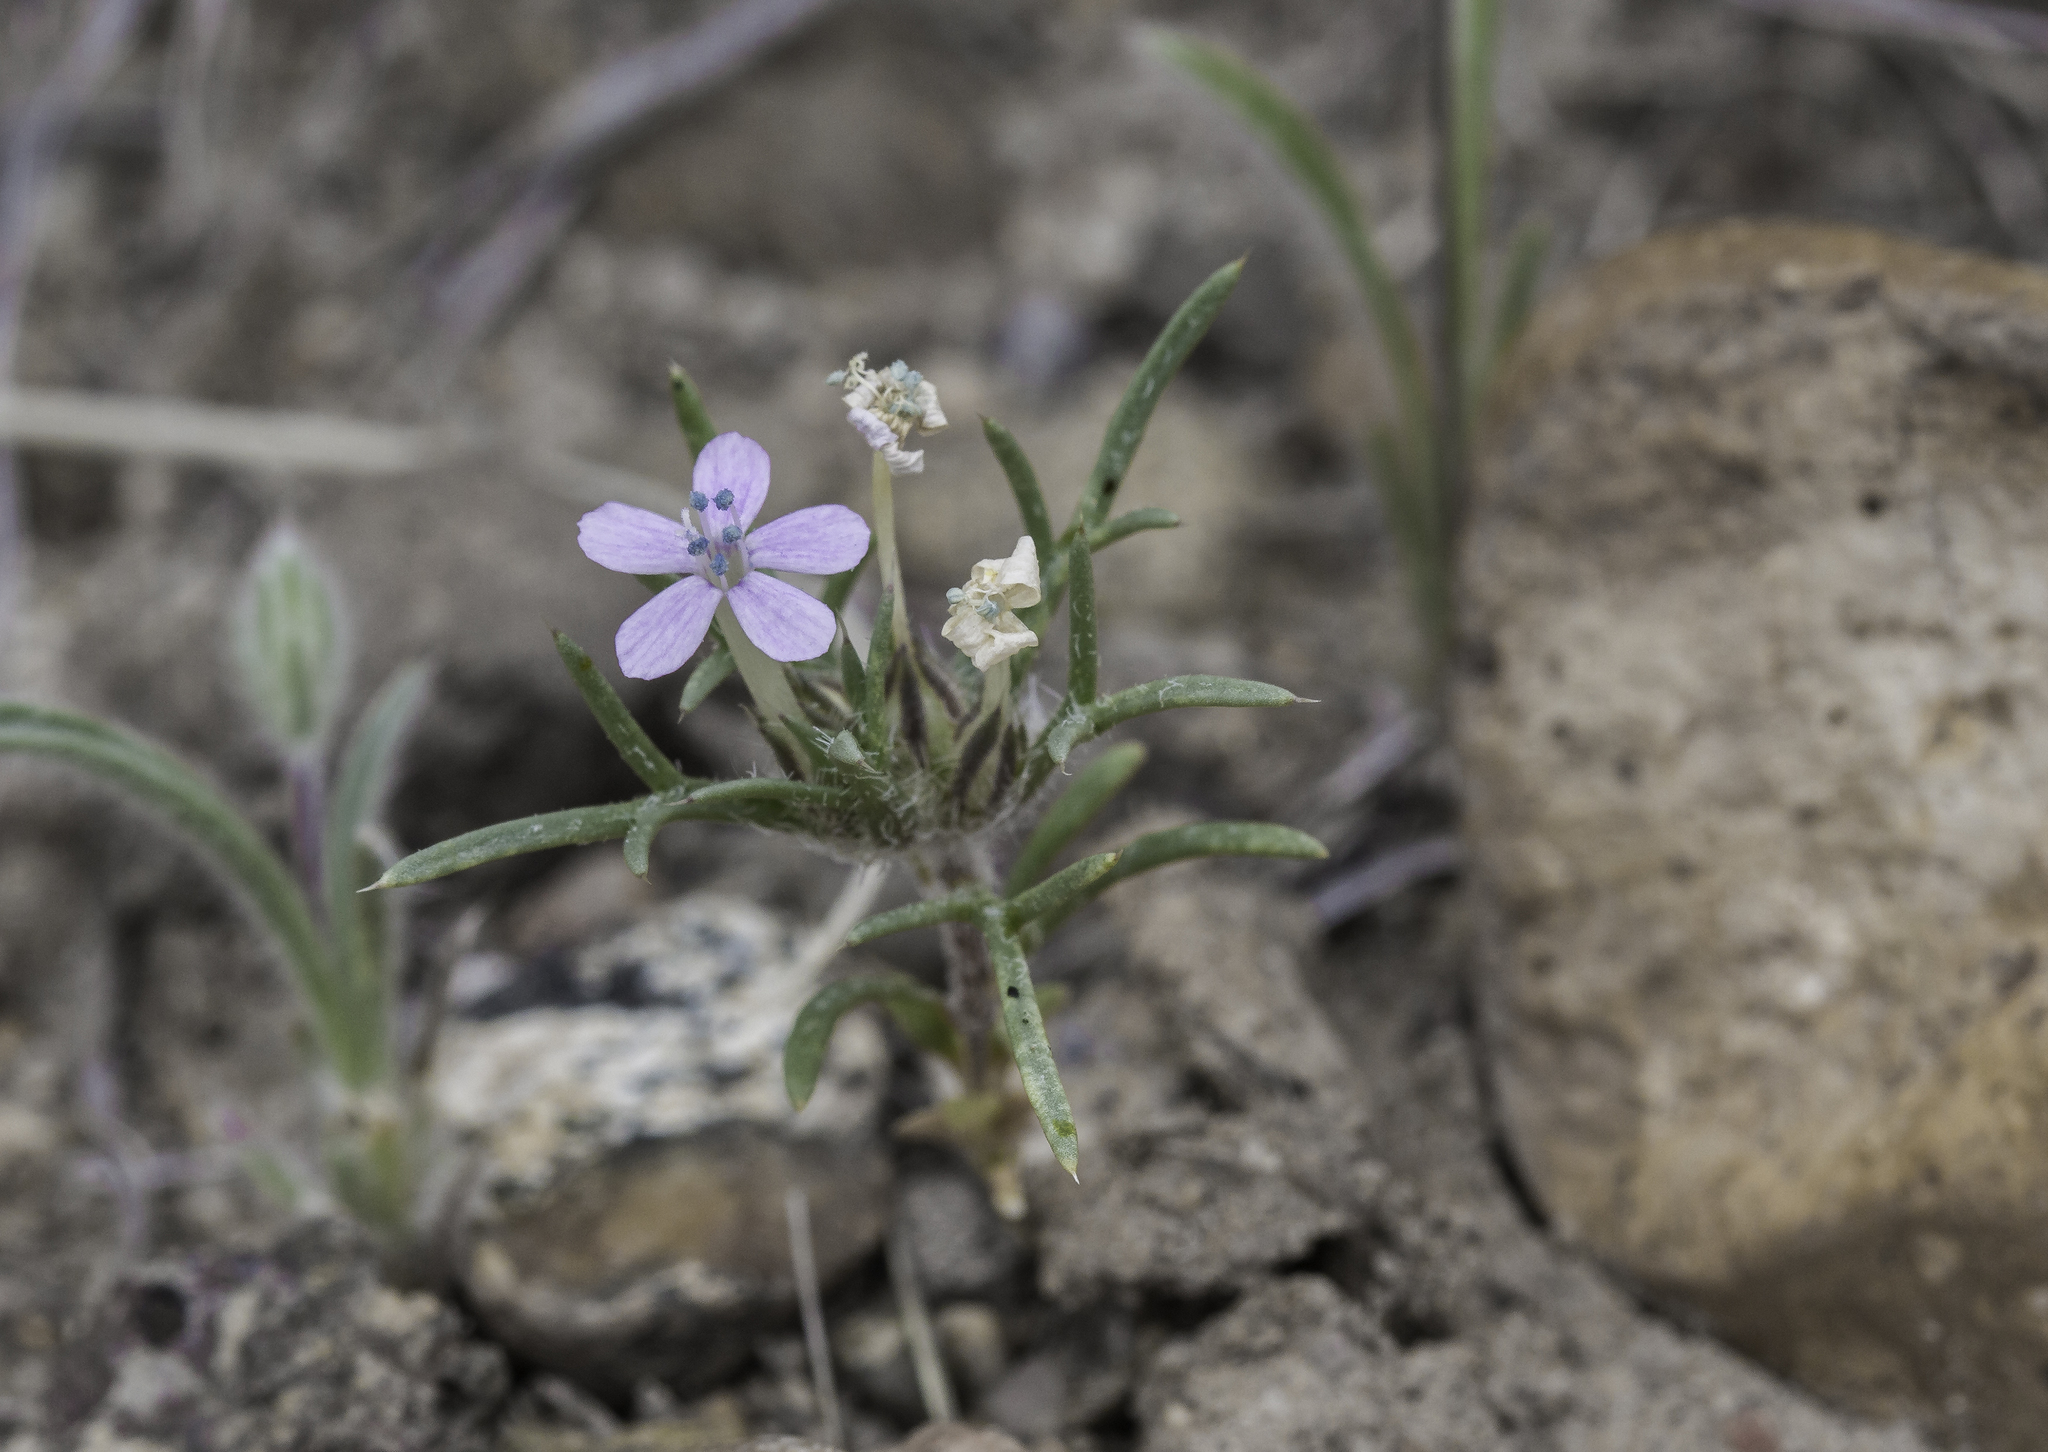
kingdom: Plantae
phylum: Tracheophyta
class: Magnoliopsida
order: Ericales
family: Polemoniaceae
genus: Ipomopsis
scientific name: Ipomopsis pumila
